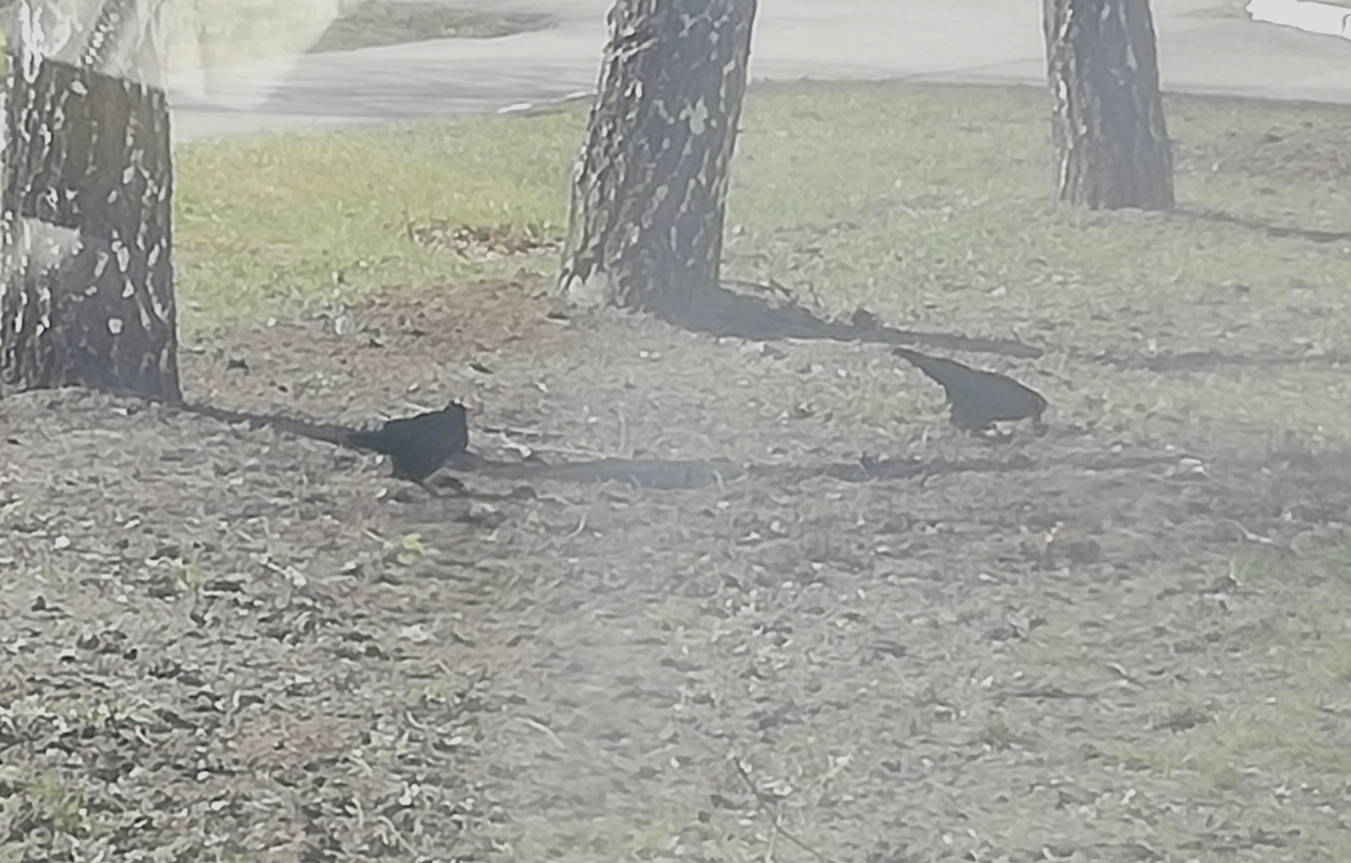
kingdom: Animalia
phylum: Chordata
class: Aves
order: Passeriformes
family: Corvidae
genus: Corvus
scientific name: Corvus frugilegus
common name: Rook
